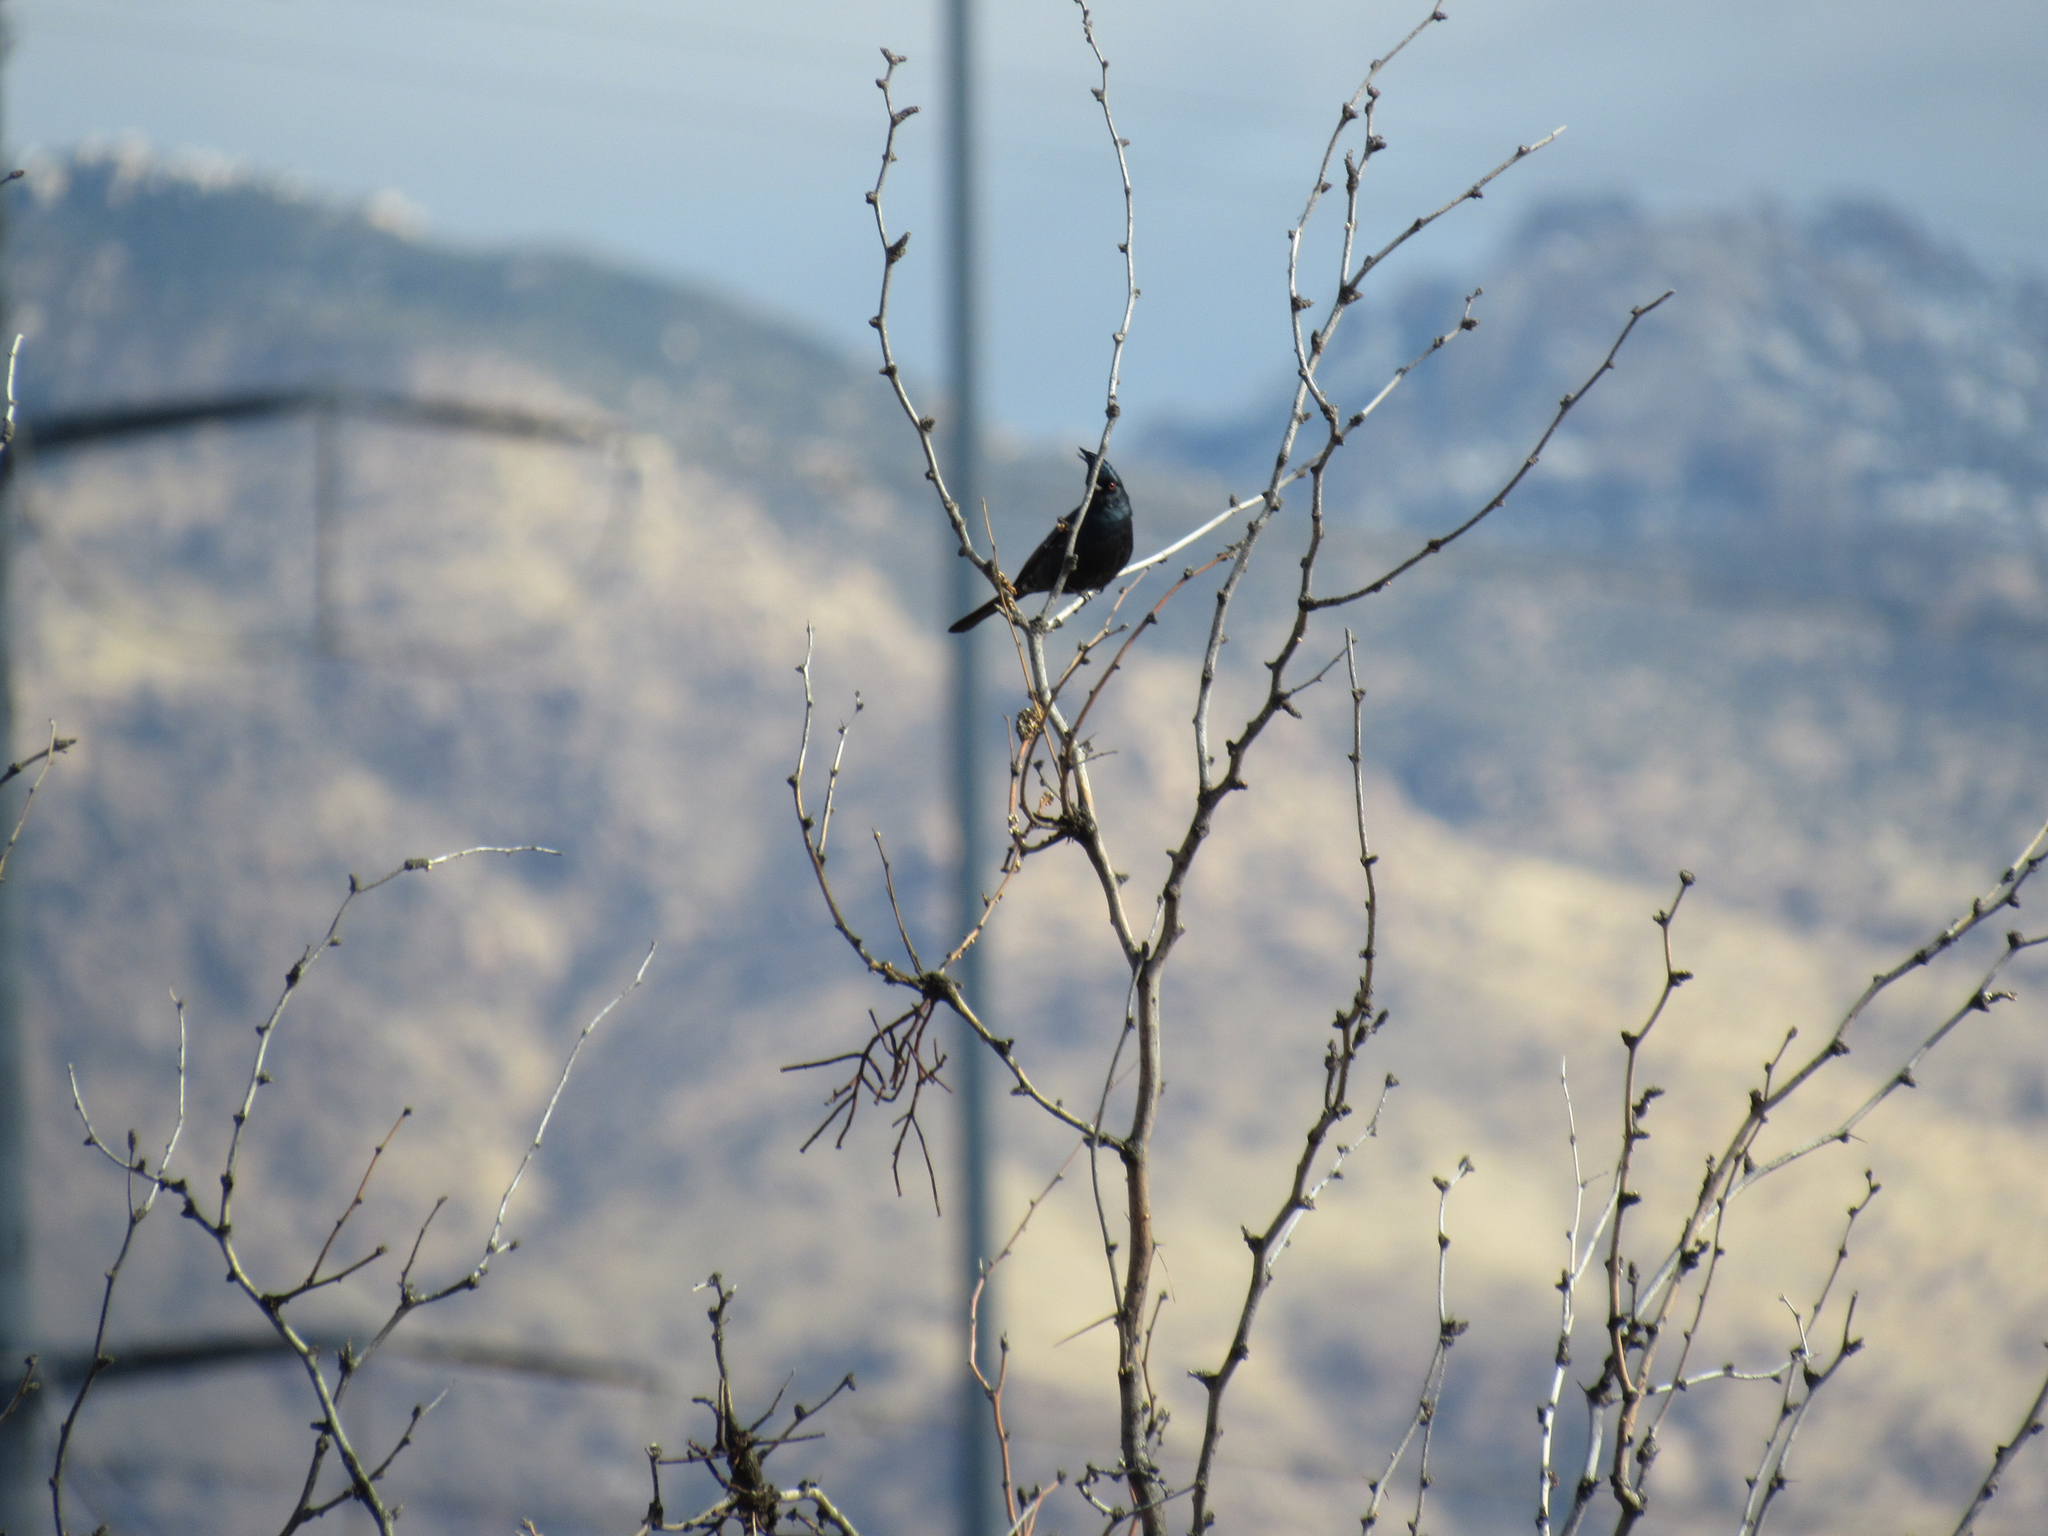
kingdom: Animalia
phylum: Chordata
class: Aves
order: Passeriformes
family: Ptilogonatidae
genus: Phainopepla
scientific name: Phainopepla nitens
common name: Phainopepla
